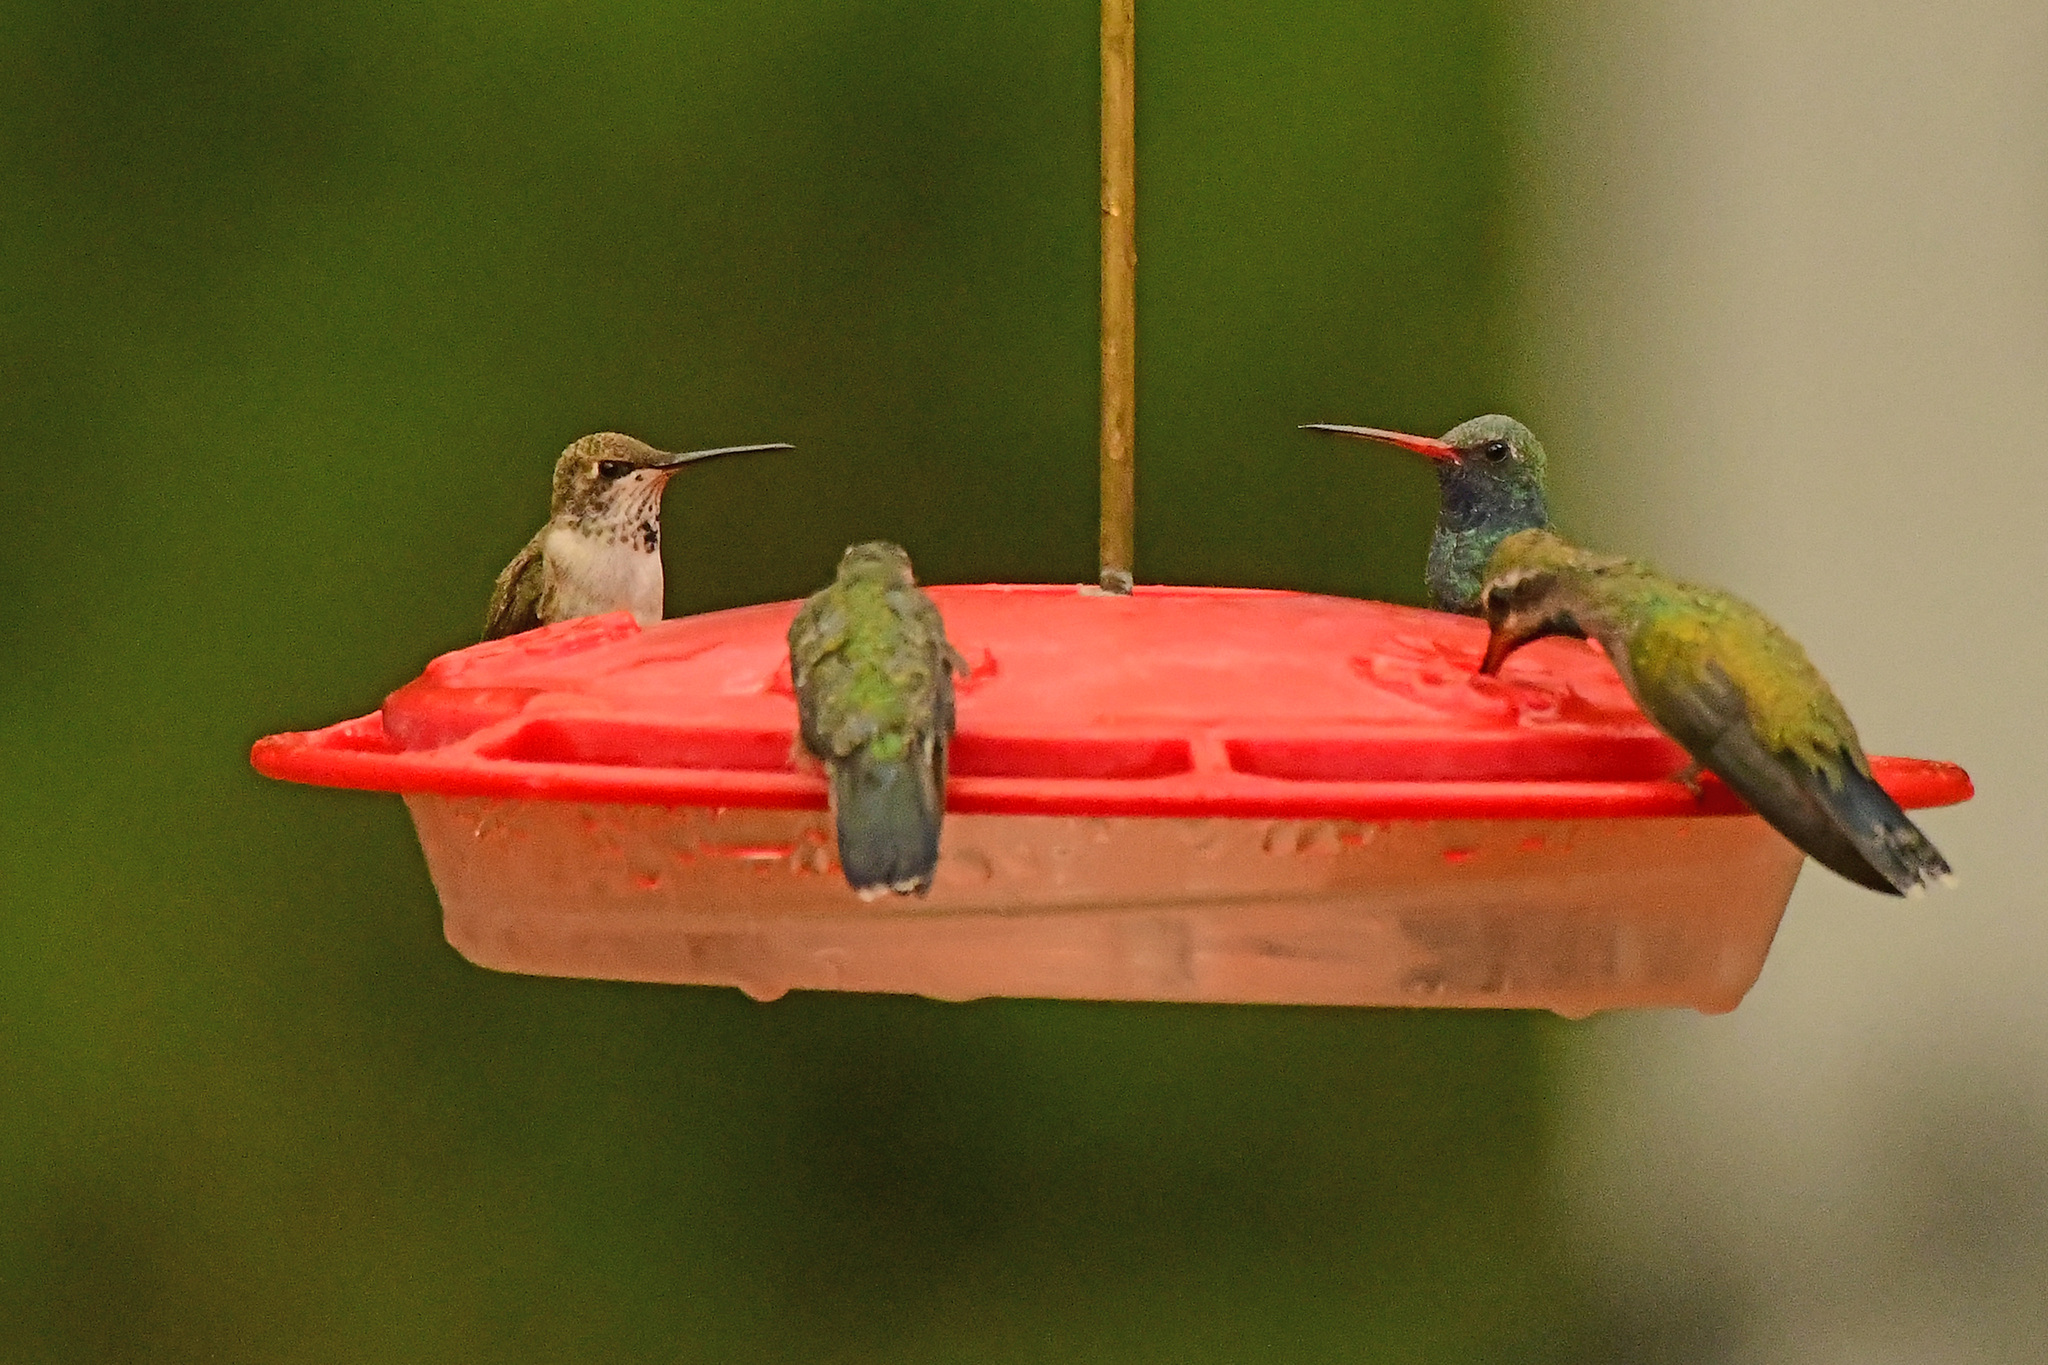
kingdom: Animalia
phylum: Chordata
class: Aves
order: Apodiformes
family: Trochilidae
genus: Archilochus
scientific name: Archilochus alexandri
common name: Black-chinned hummingbird
